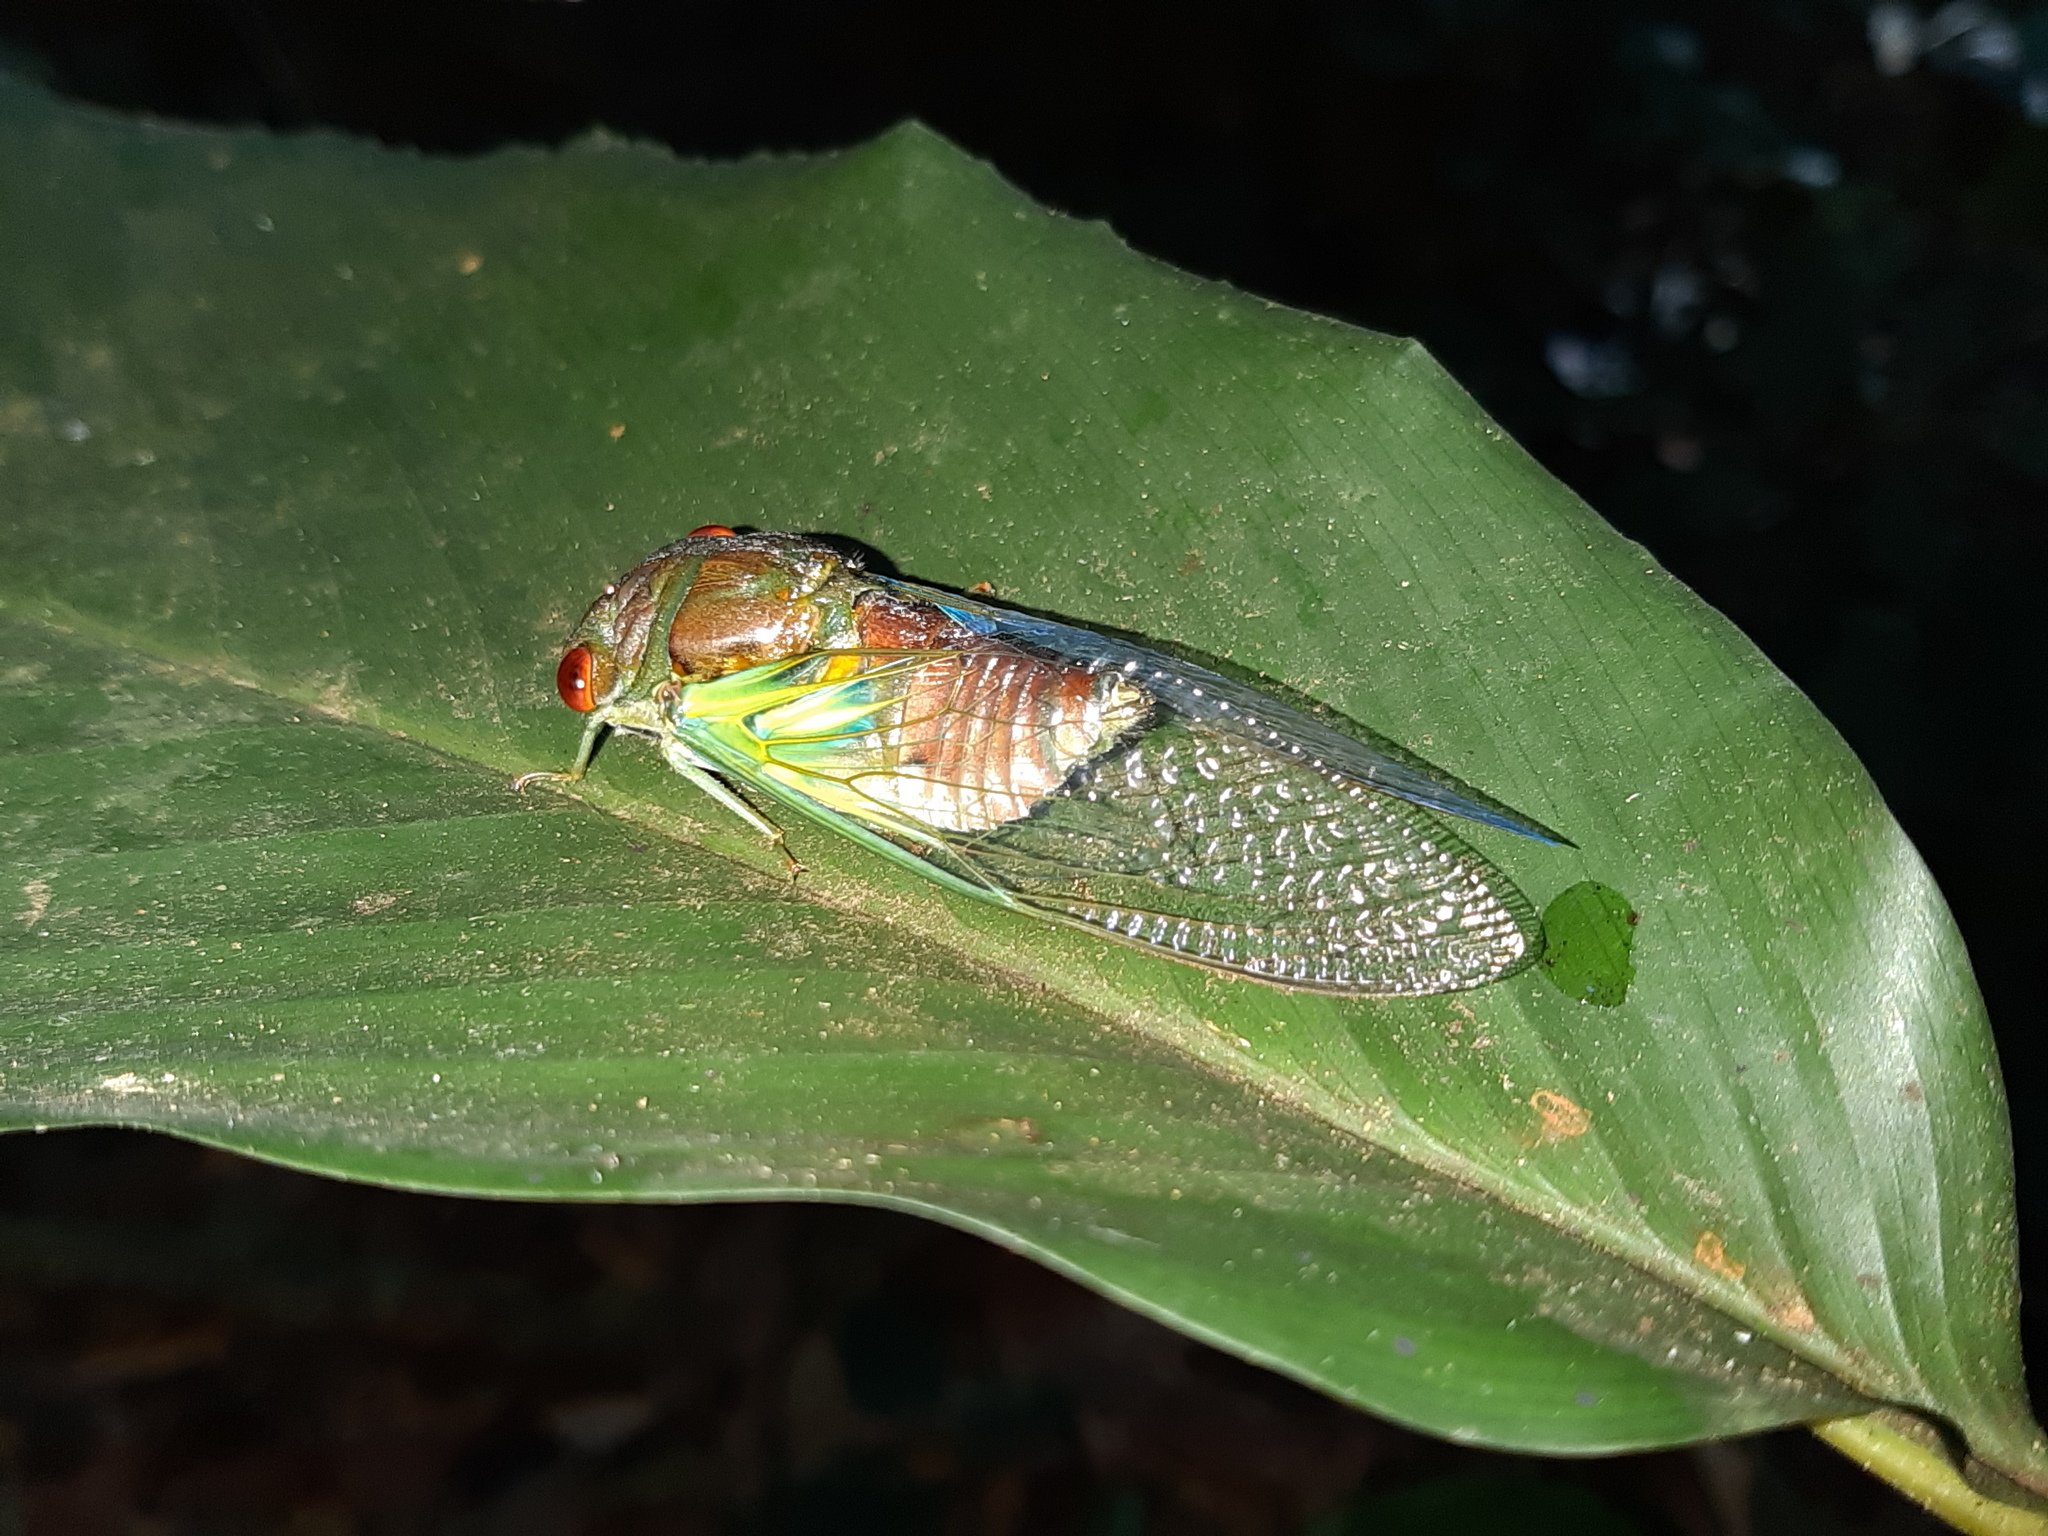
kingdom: Animalia
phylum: Arthropoda
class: Insecta
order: Hemiptera
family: Cicadidae
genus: Orialella
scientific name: Orialella boliviana
